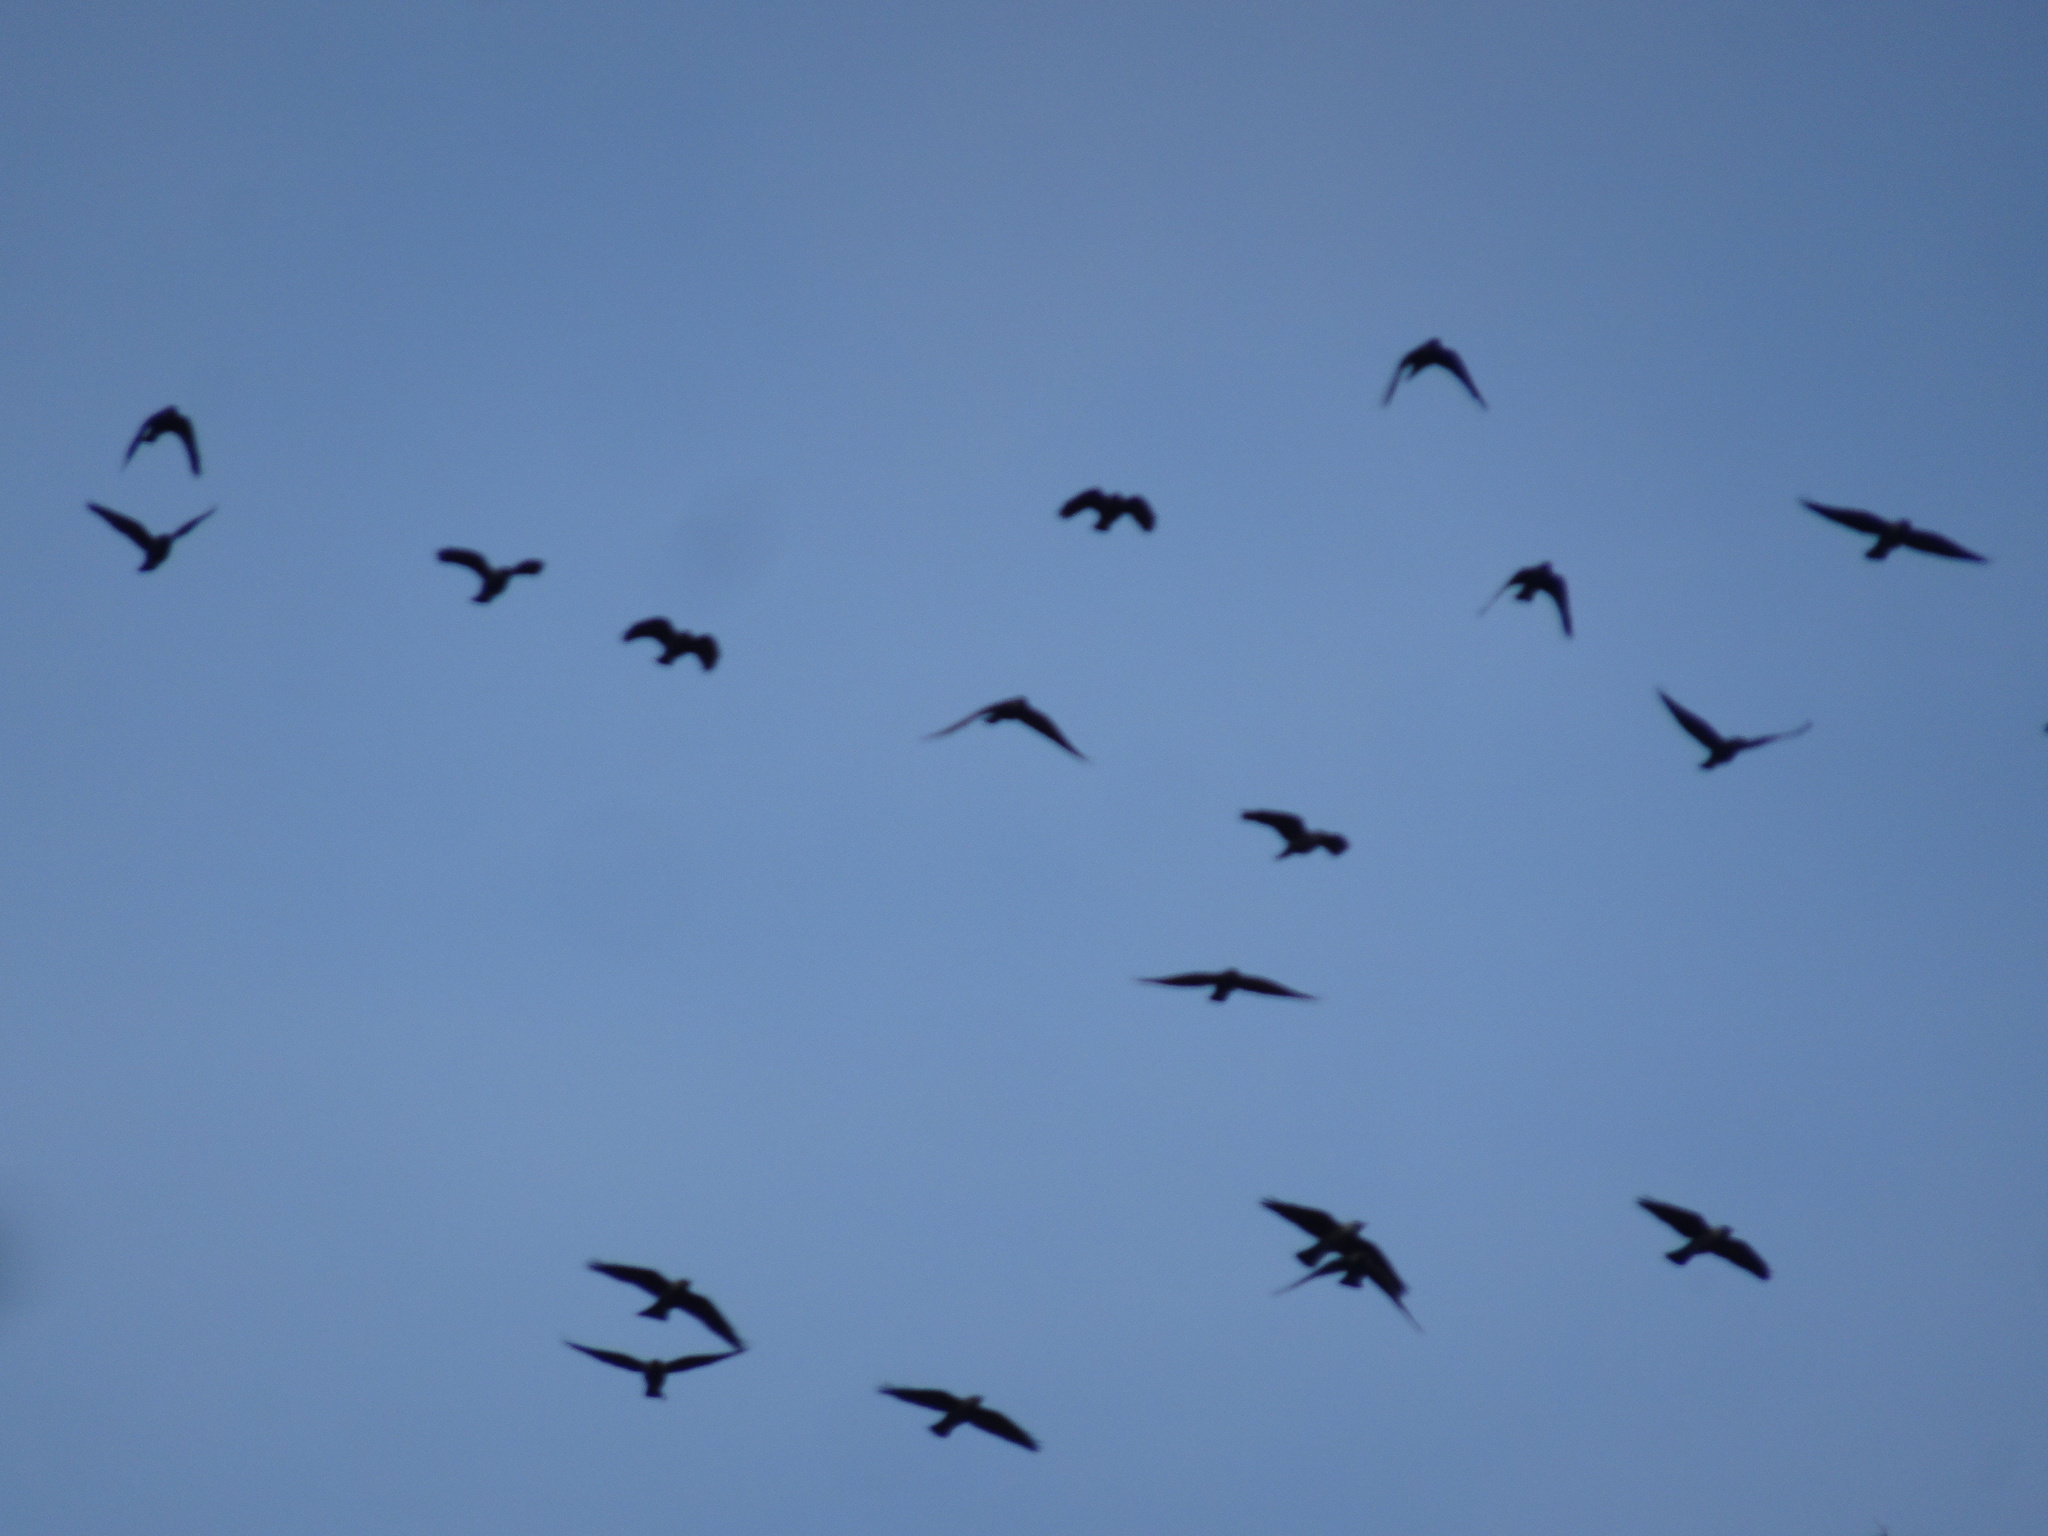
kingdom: Animalia
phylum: Chordata
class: Aves
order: Passeriformes
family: Corvidae
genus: Coloeus
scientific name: Coloeus monedula
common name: Western jackdaw
